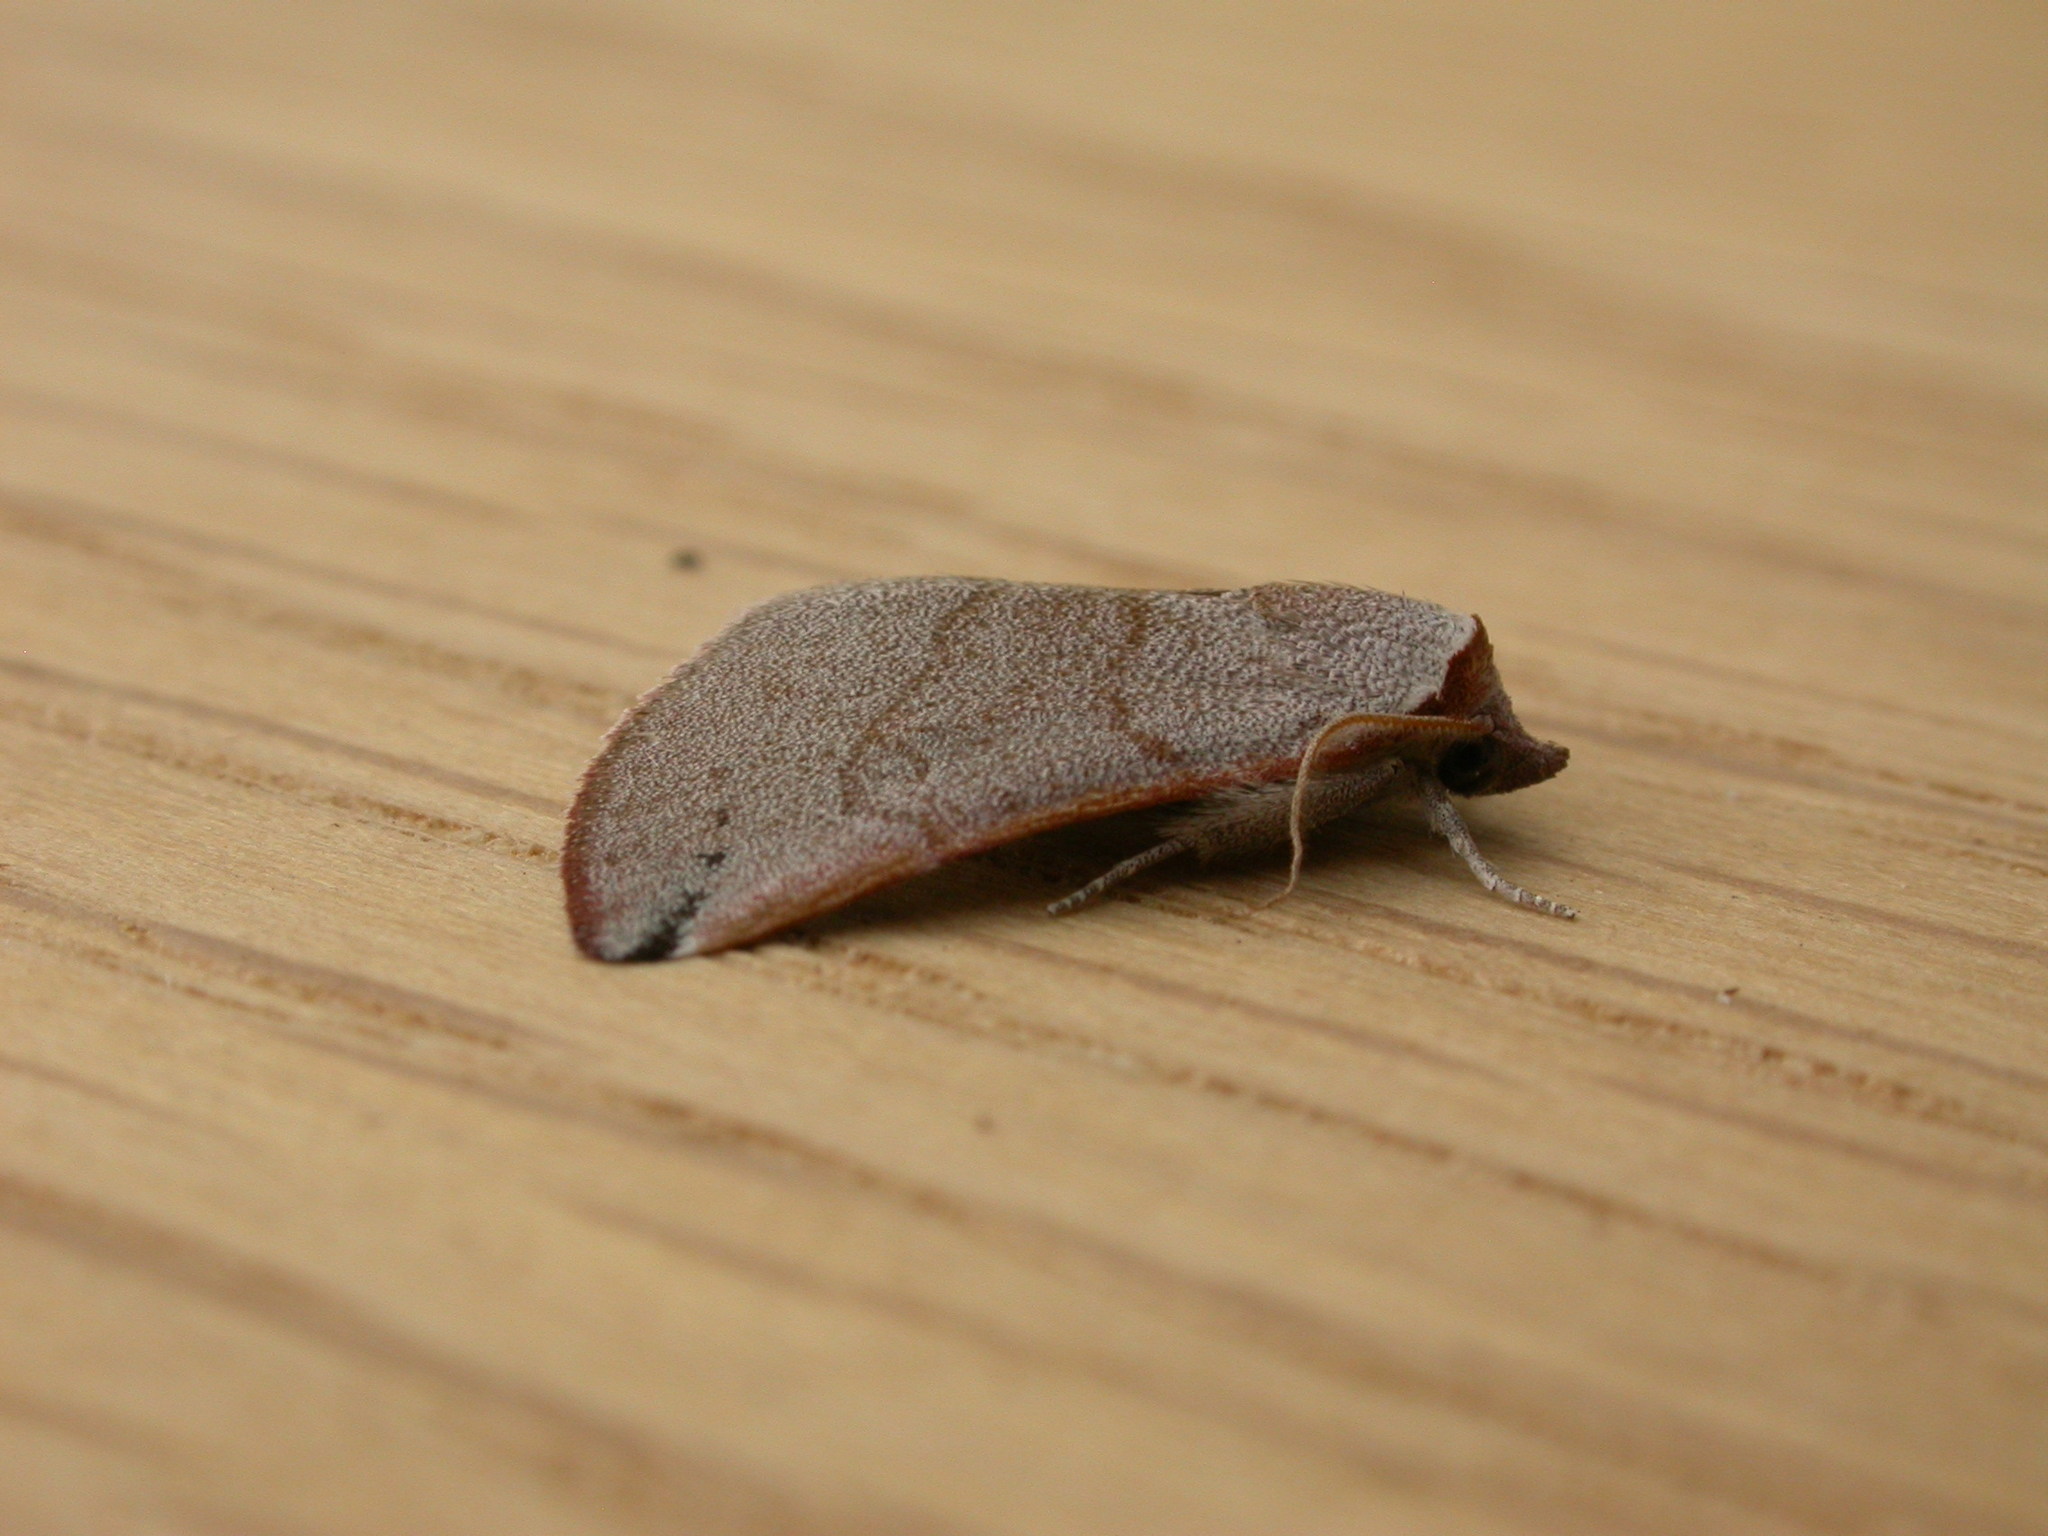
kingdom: Animalia
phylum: Arthropoda
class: Insecta
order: Lepidoptera
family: Noctuidae
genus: Mataeomera
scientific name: Mataeomera ligata
